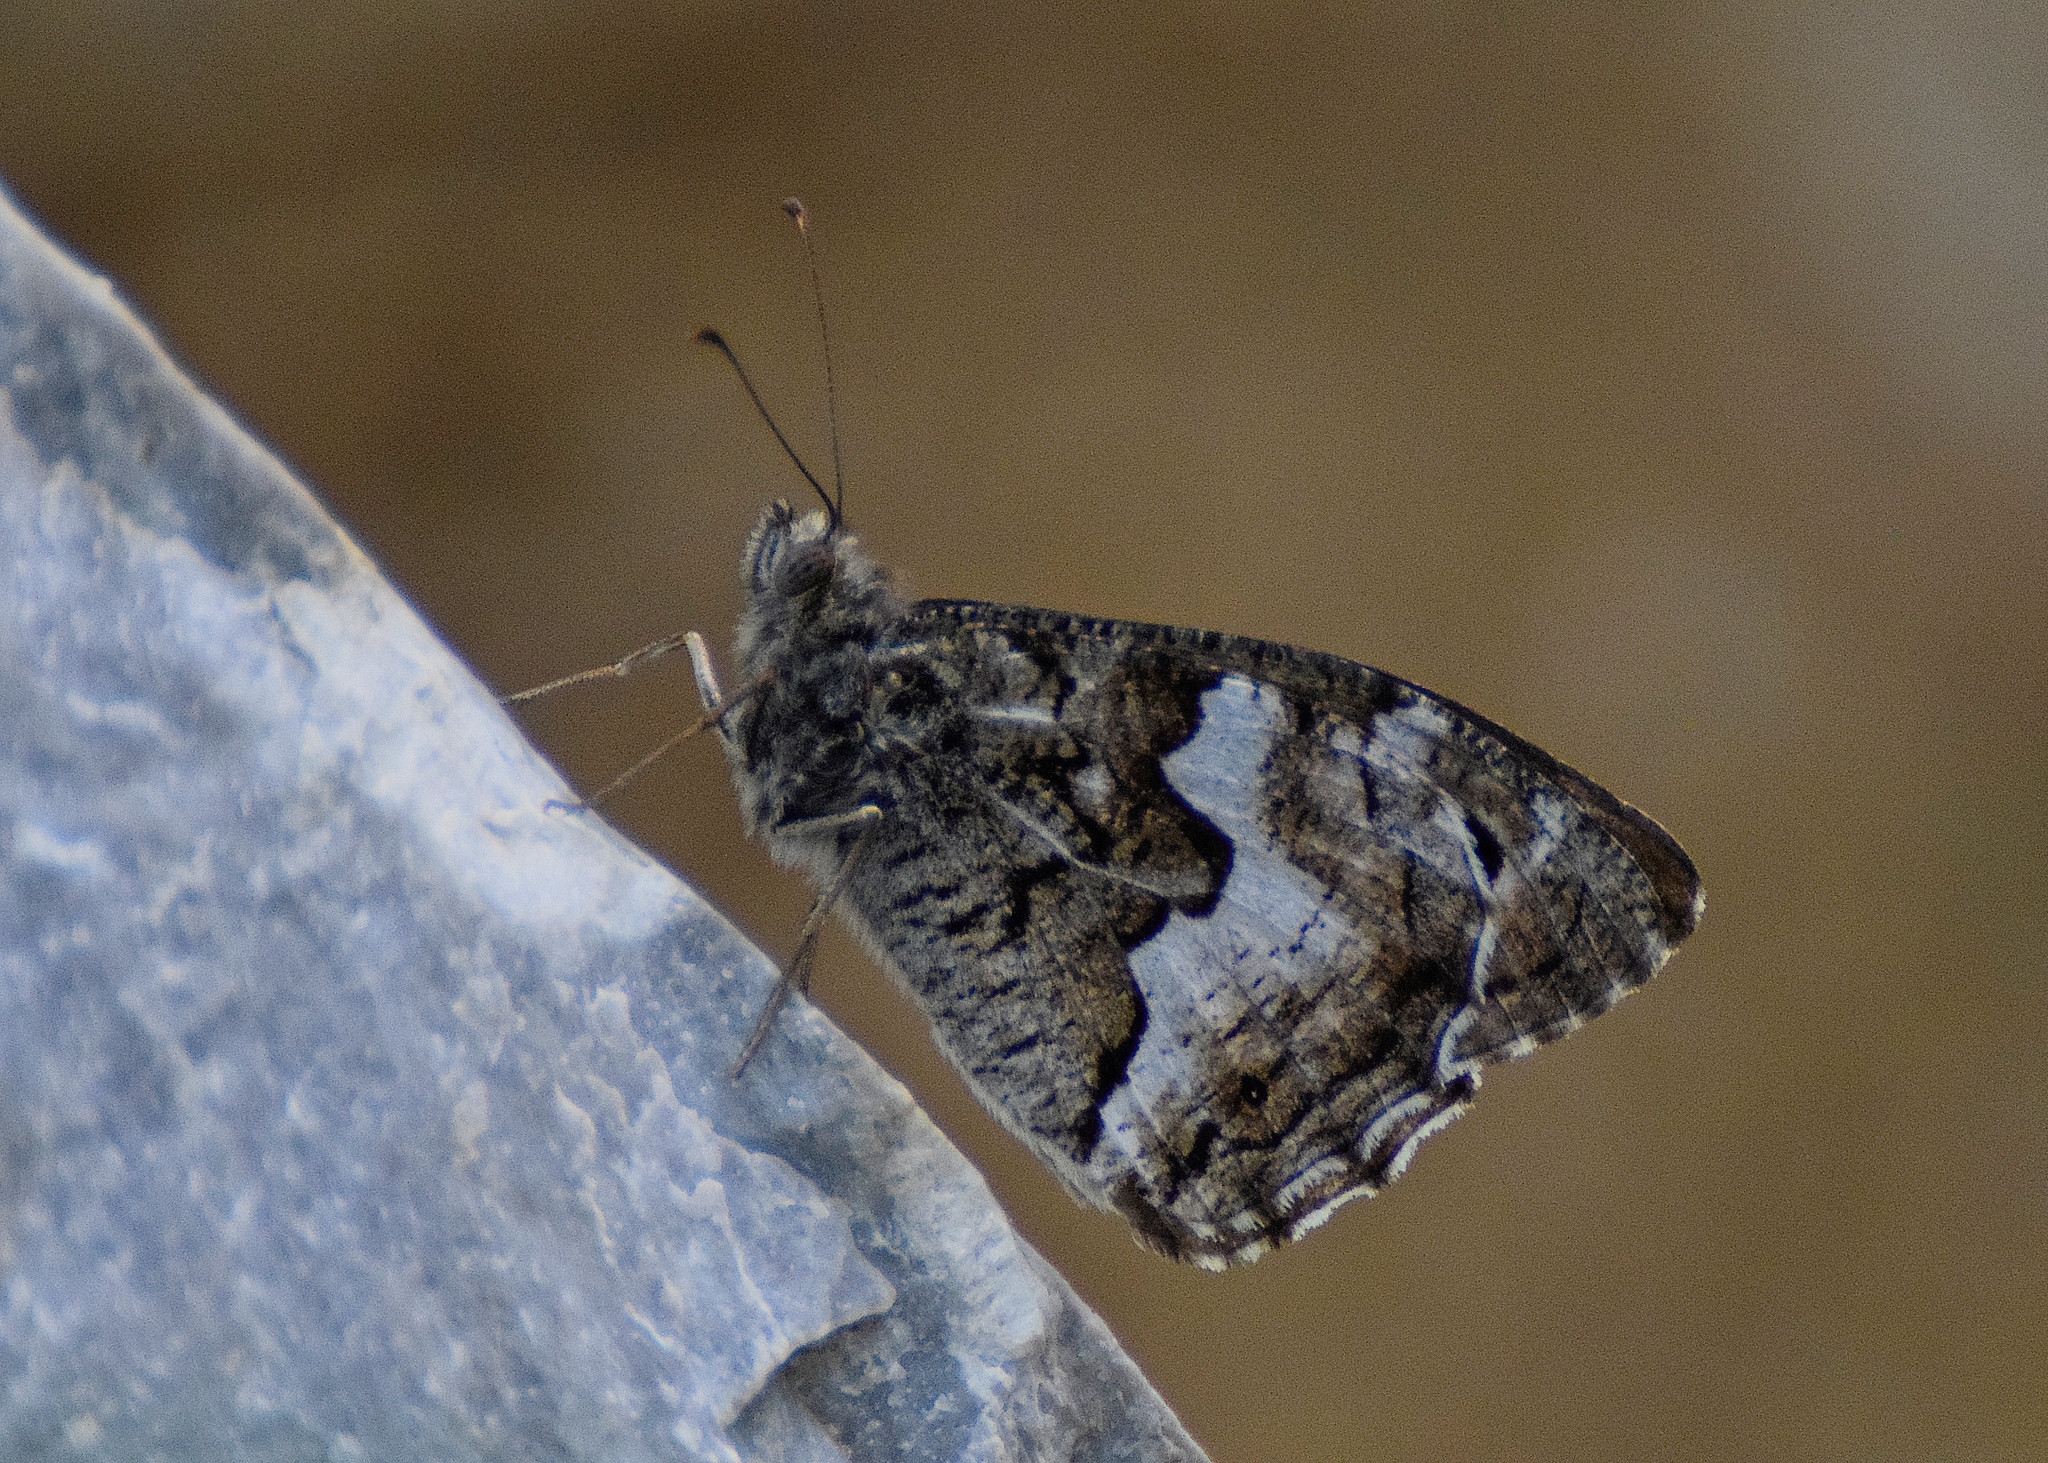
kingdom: Animalia
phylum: Arthropoda
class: Insecta
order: Lepidoptera
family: Nymphalidae
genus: Hipparchia
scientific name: Hipparchia cretica
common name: Cretan grayling
